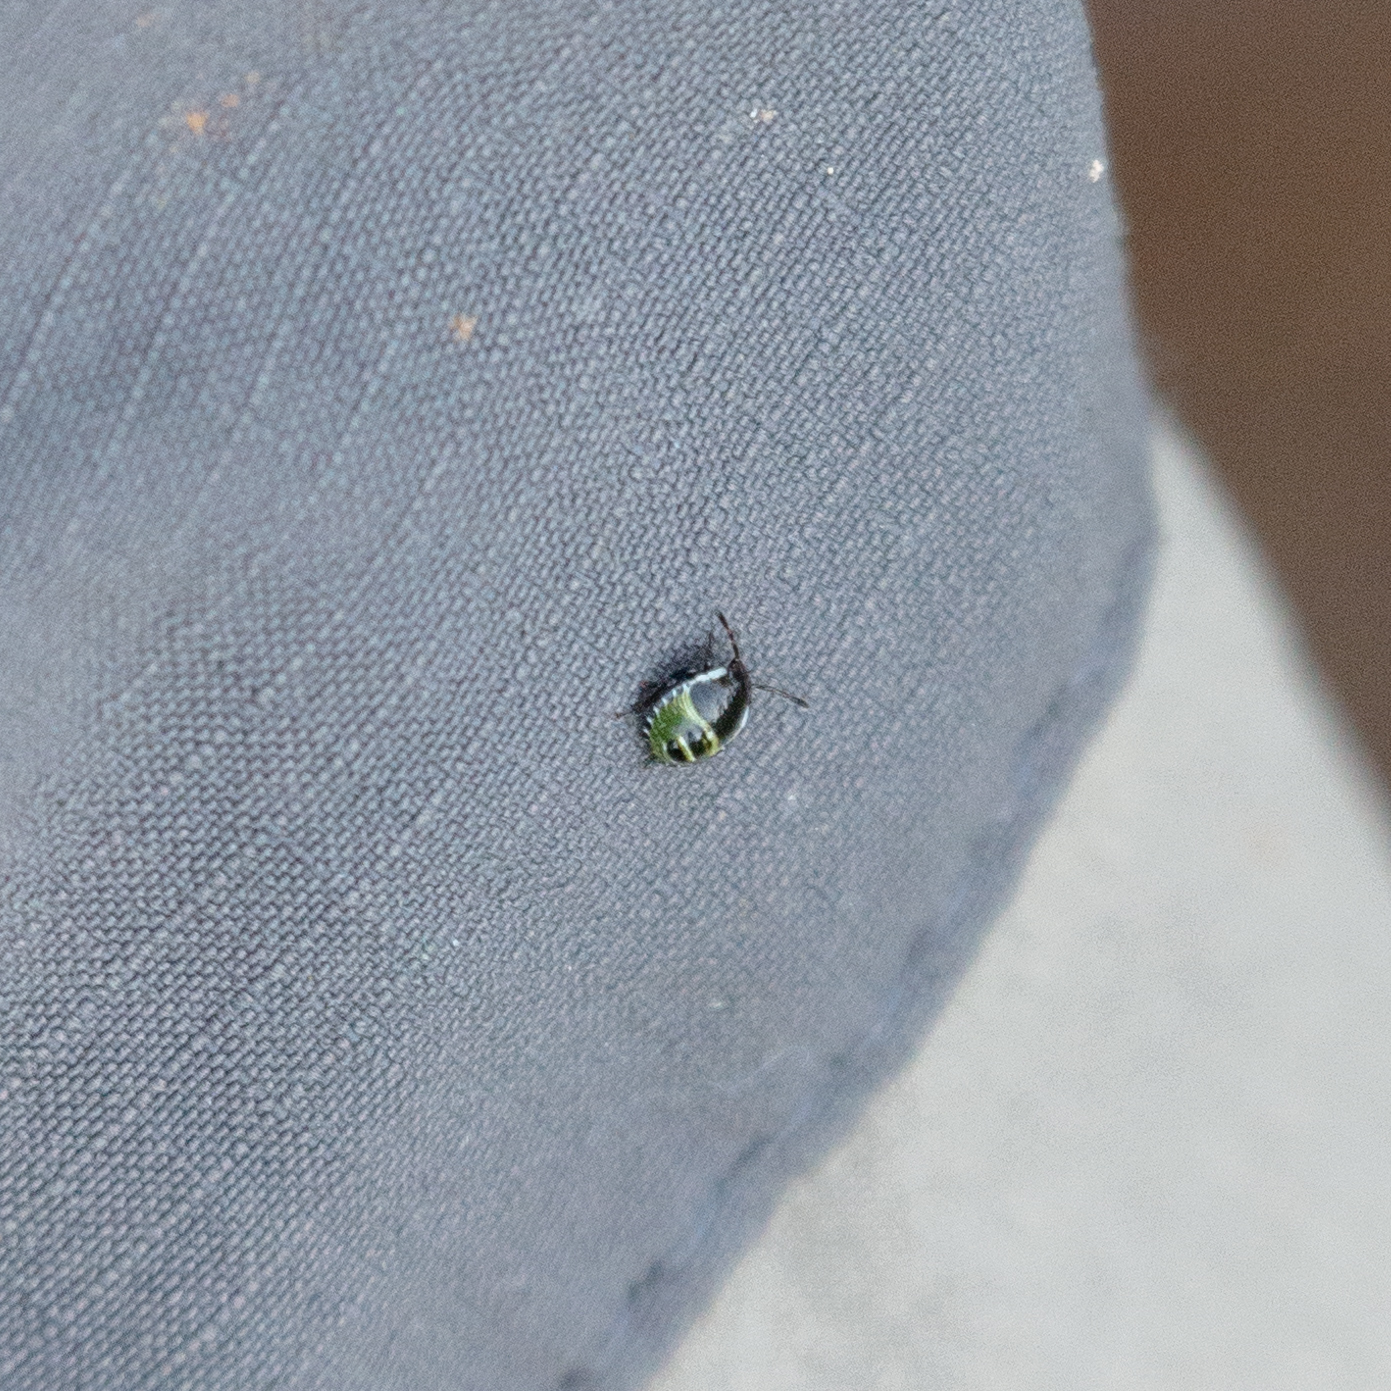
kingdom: Animalia
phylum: Arthropoda
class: Insecta
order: Hemiptera
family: Pentatomidae
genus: Palomena
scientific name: Palomena prasina
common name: Green shieldbug
